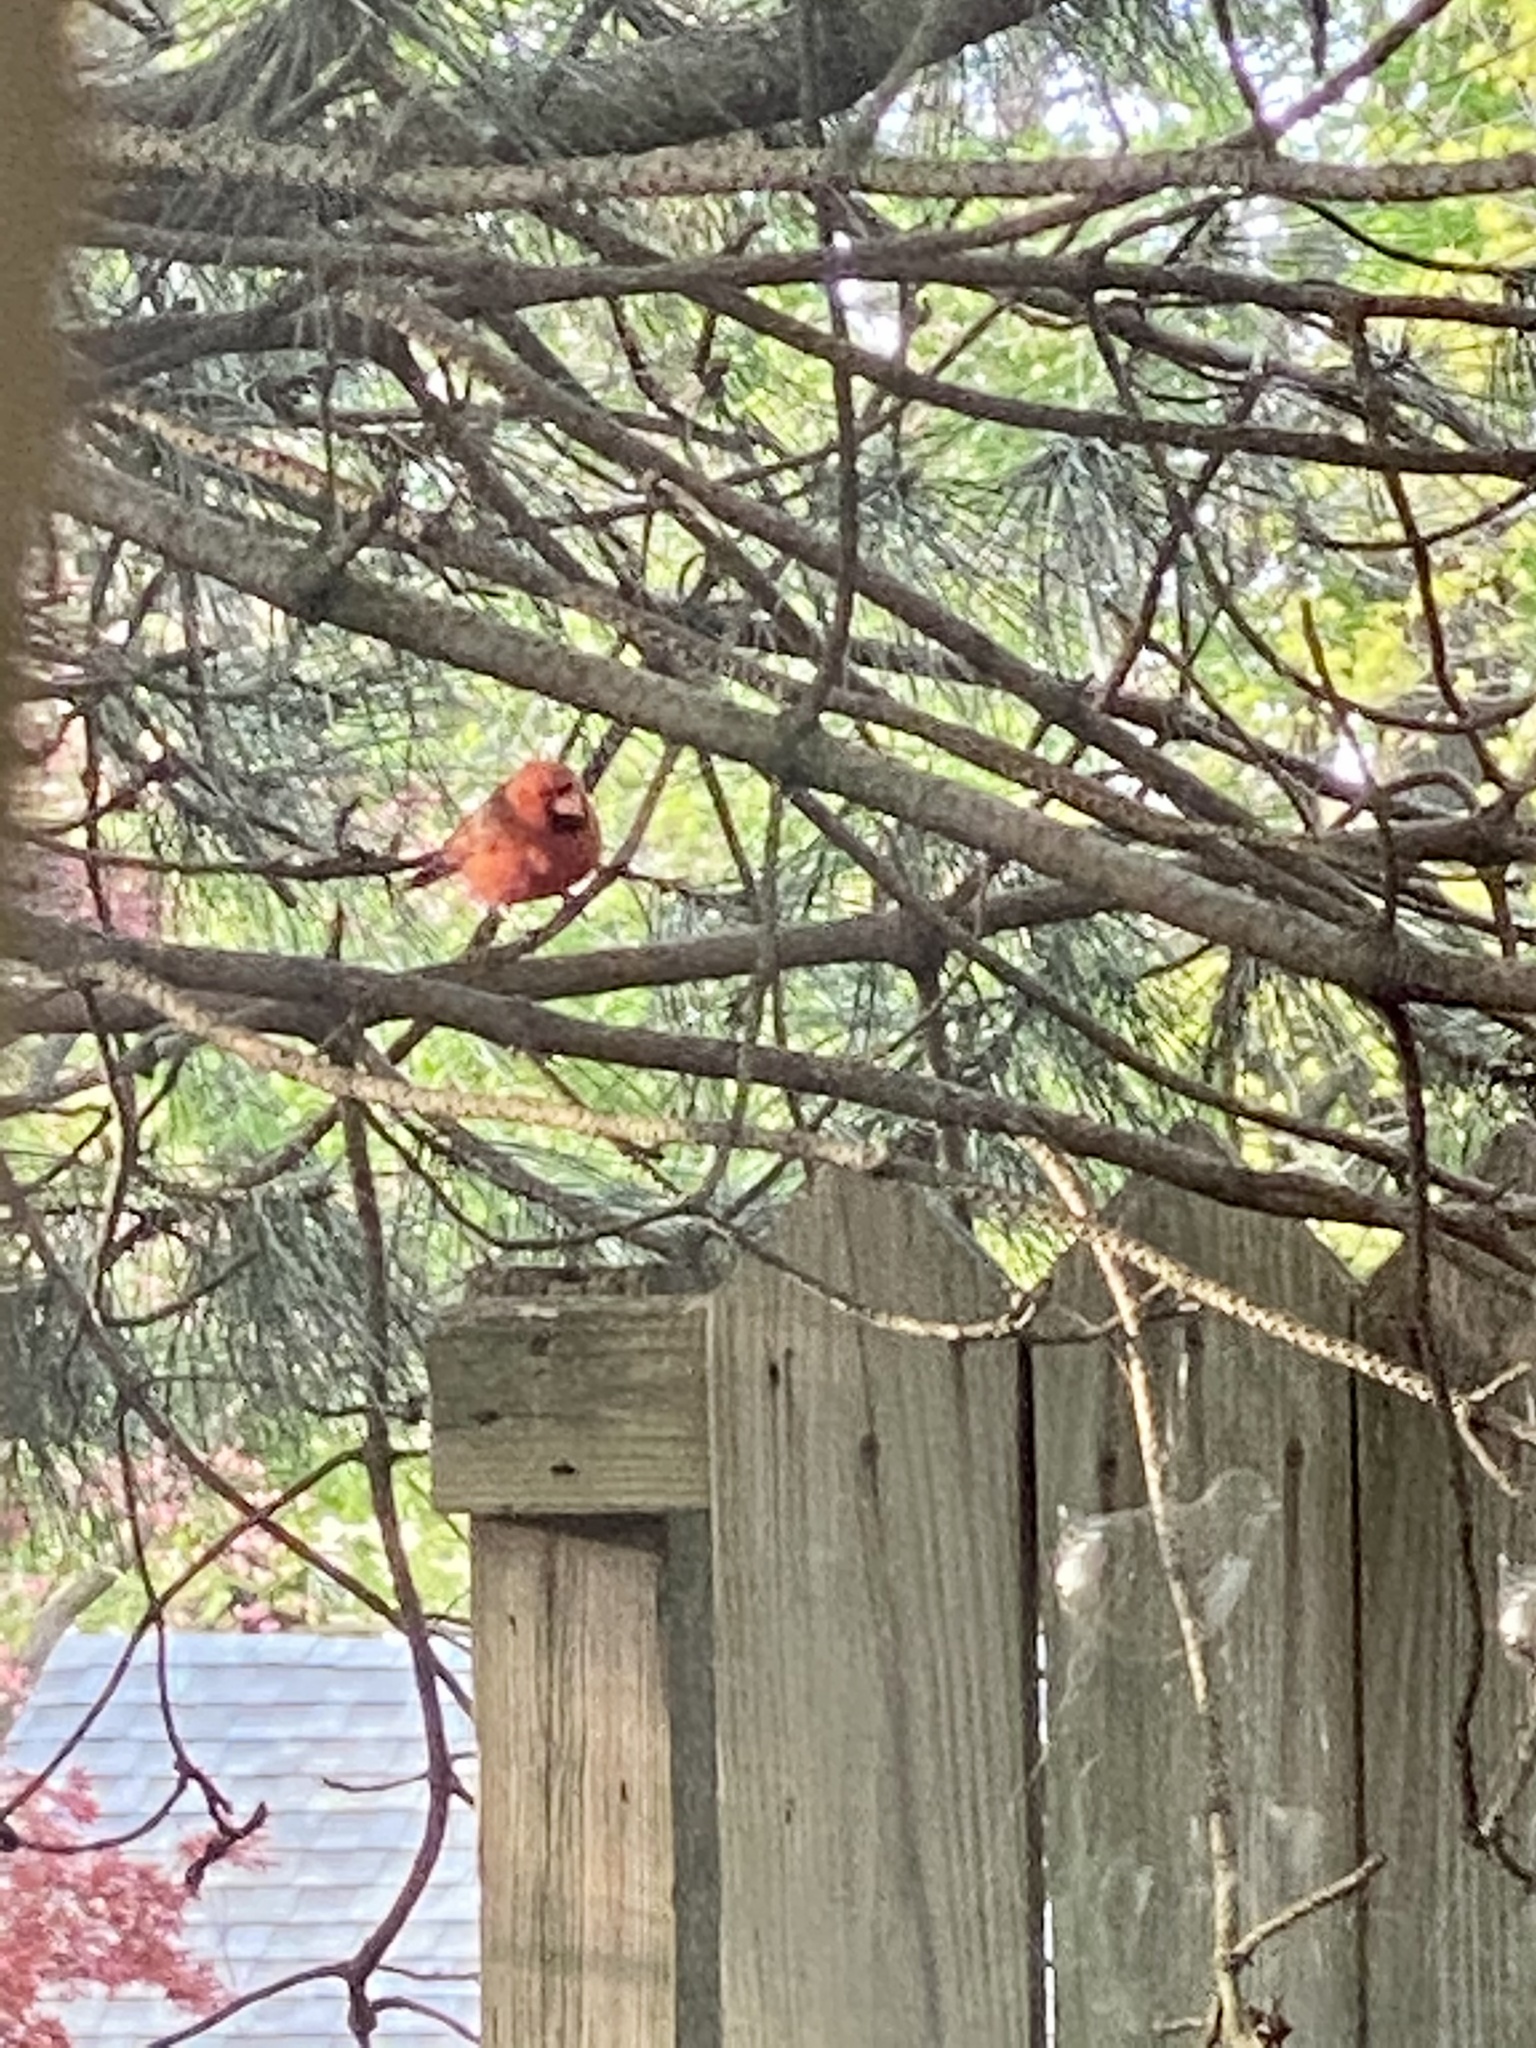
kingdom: Animalia
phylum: Chordata
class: Aves
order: Passeriformes
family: Cardinalidae
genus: Cardinalis
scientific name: Cardinalis cardinalis
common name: Northern cardinal
